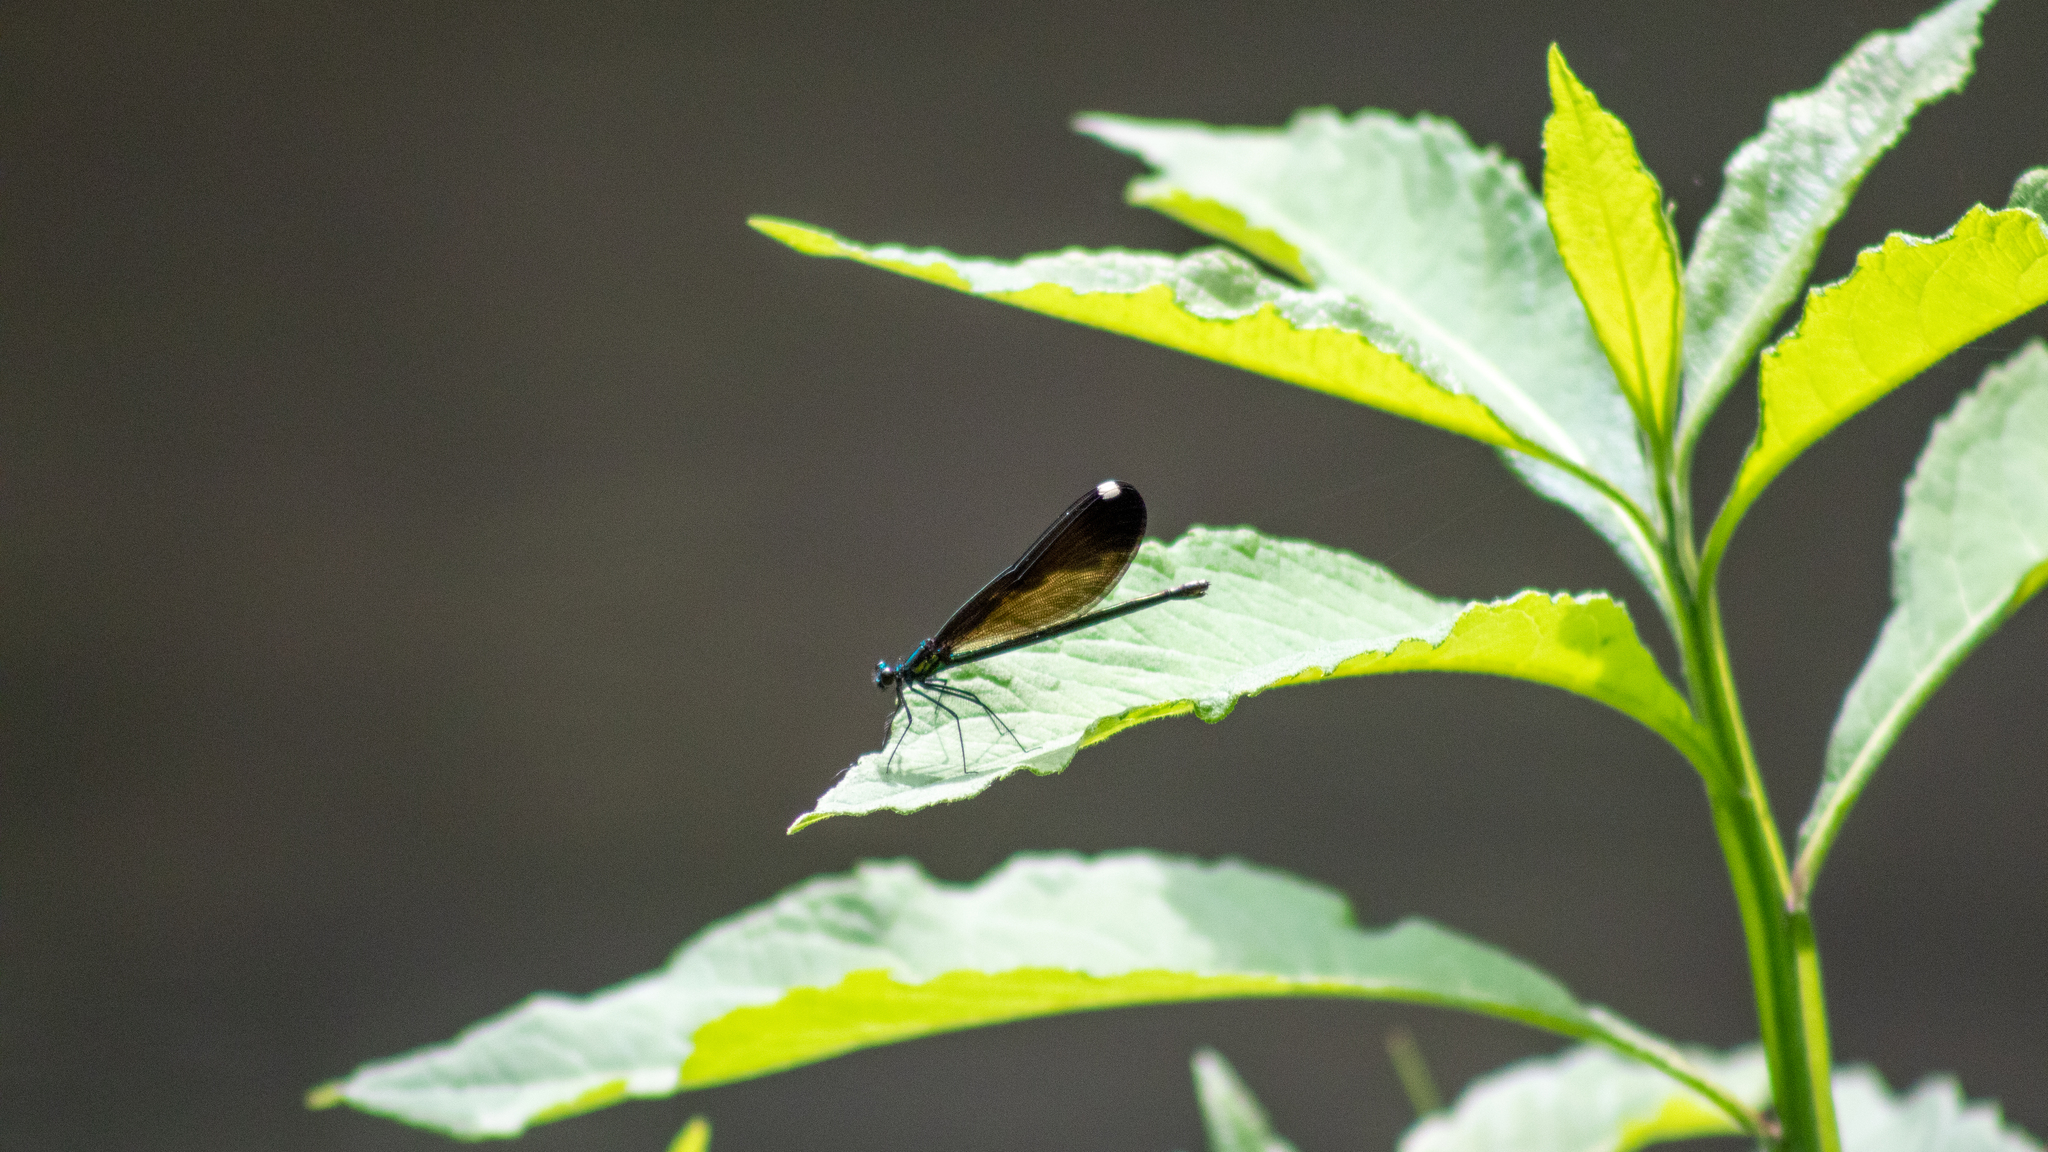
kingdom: Animalia
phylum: Arthropoda
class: Insecta
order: Odonata
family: Calopterygidae
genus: Calopteryx
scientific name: Calopteryx maculata
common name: Ebony jewelwing
